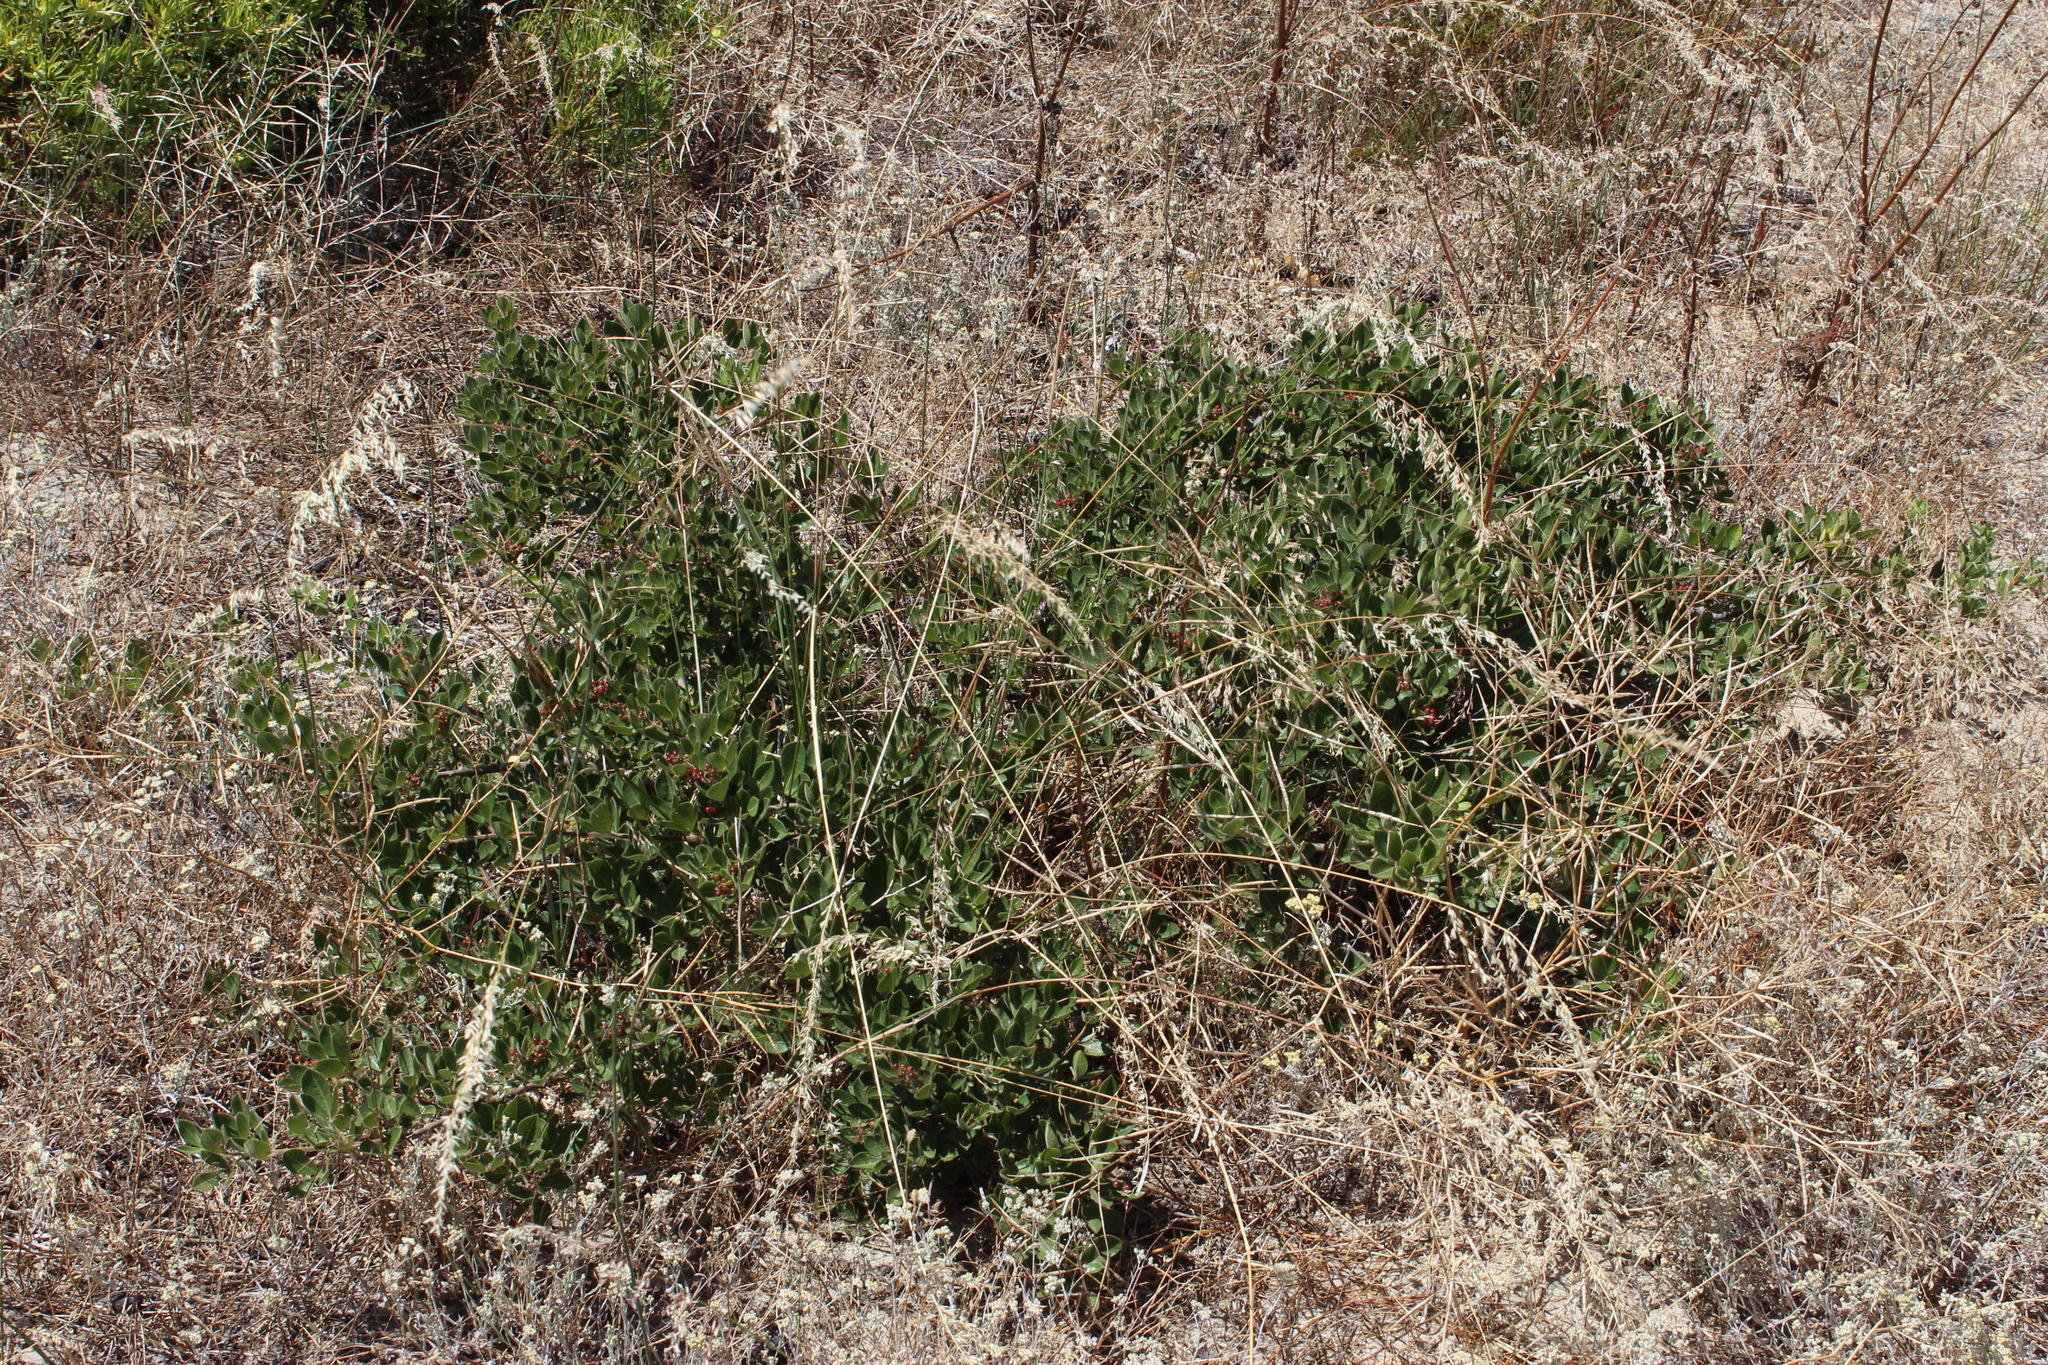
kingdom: Plantae
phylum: Tracheophyta
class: Magnoliopsida
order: Sapindales
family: Anacardiaceae
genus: Searsia
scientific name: Searsia laevigata
